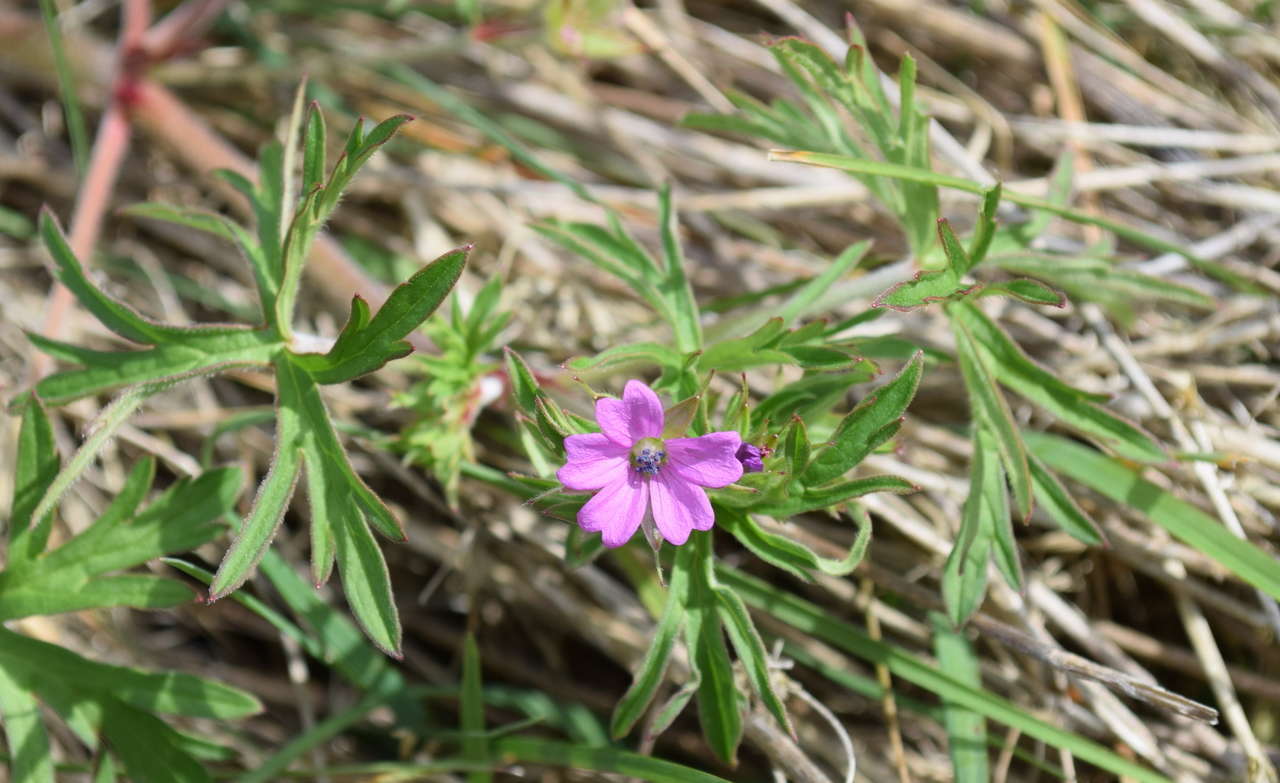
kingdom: Plantae
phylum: Tracheophyta
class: Magnoliopsida
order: Geraniales
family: Geraniaceae
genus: Geranium
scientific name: Geranium dissectum
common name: Cut-leaved crane's-bill
